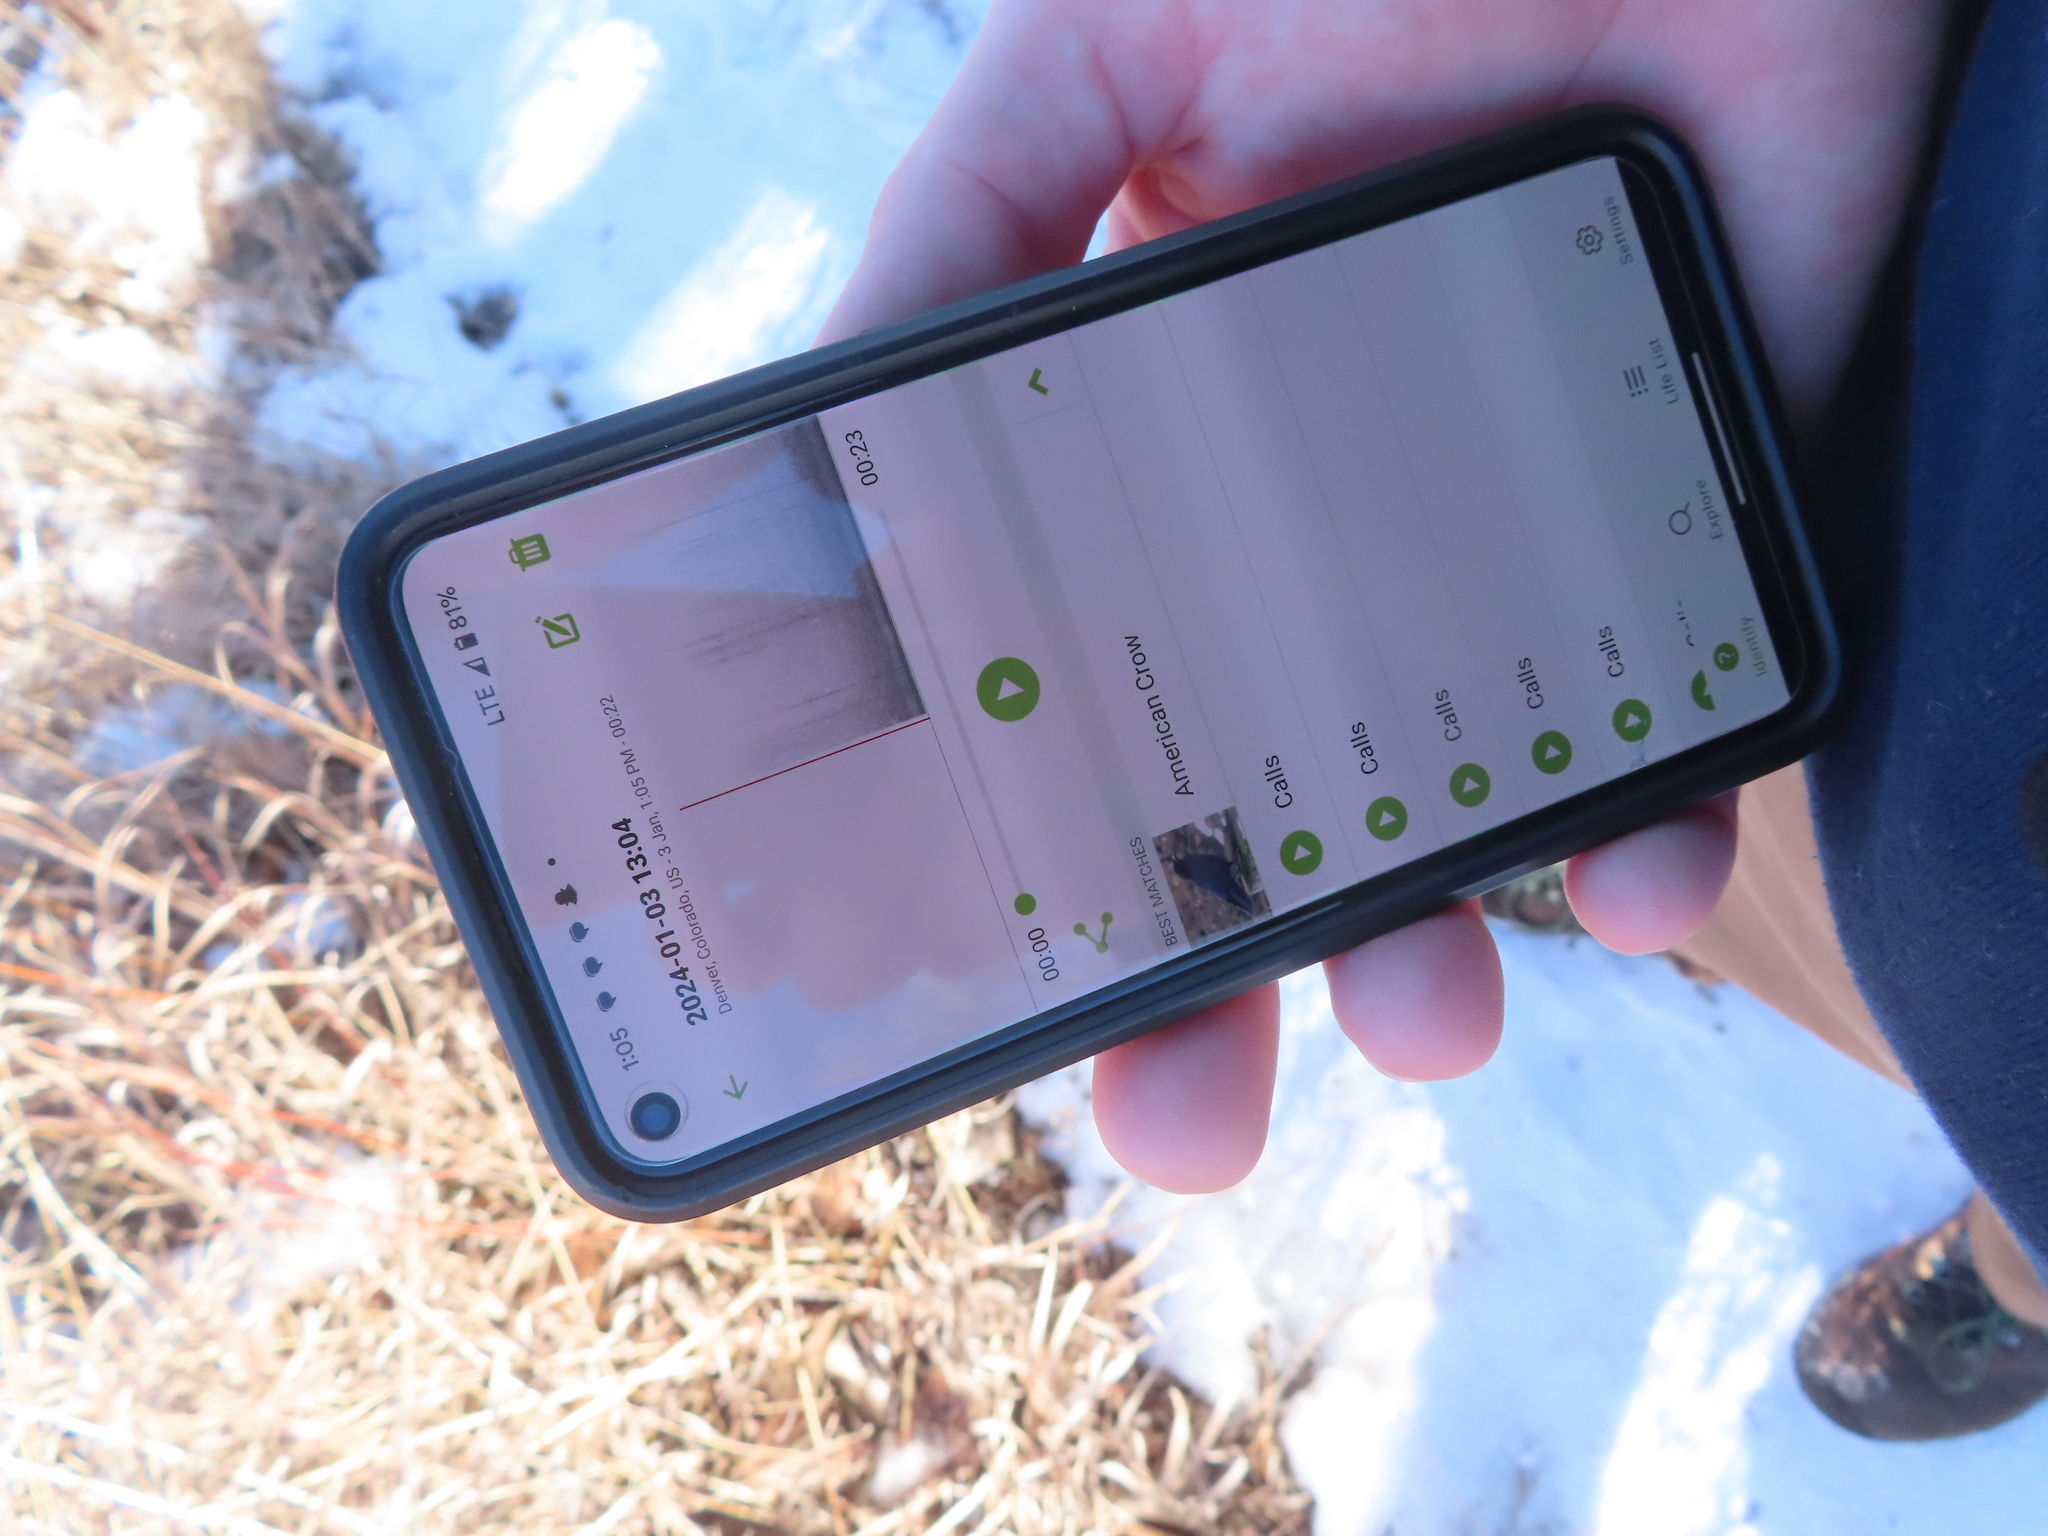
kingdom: Animalia
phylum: Chordata
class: Aves
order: Passeriformes
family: Corvidae
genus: Corvus
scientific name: Corvus brachyrhynchos
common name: American crow
